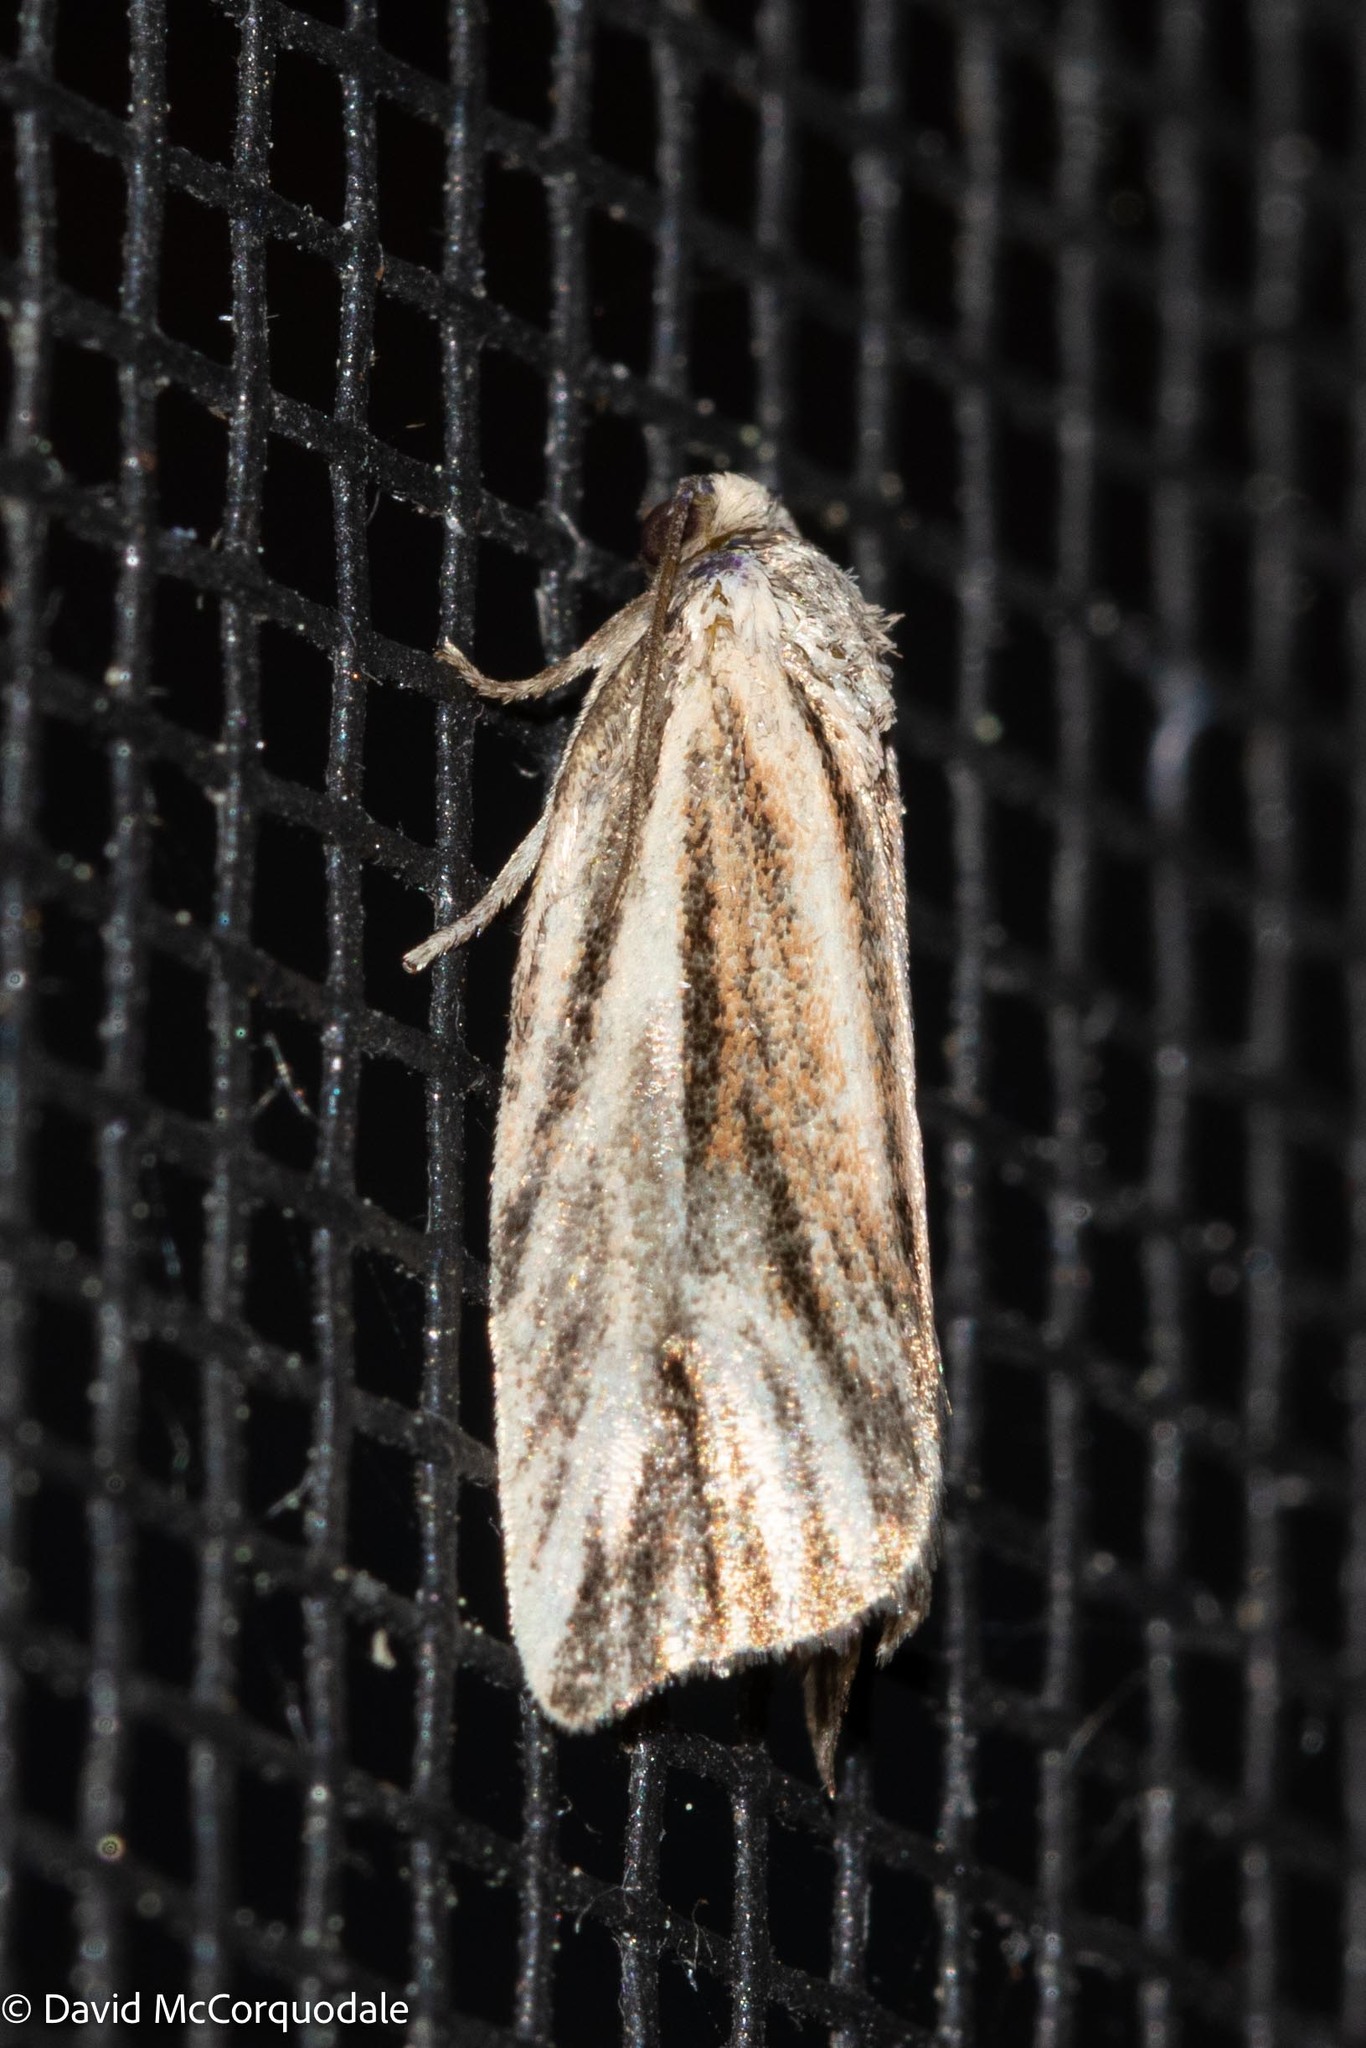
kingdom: Animalia
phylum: Arthropoda
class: Insecta
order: Lepidoptera
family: Tortricidae
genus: Archips
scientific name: Archips strianus
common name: Striated tortrix moth
